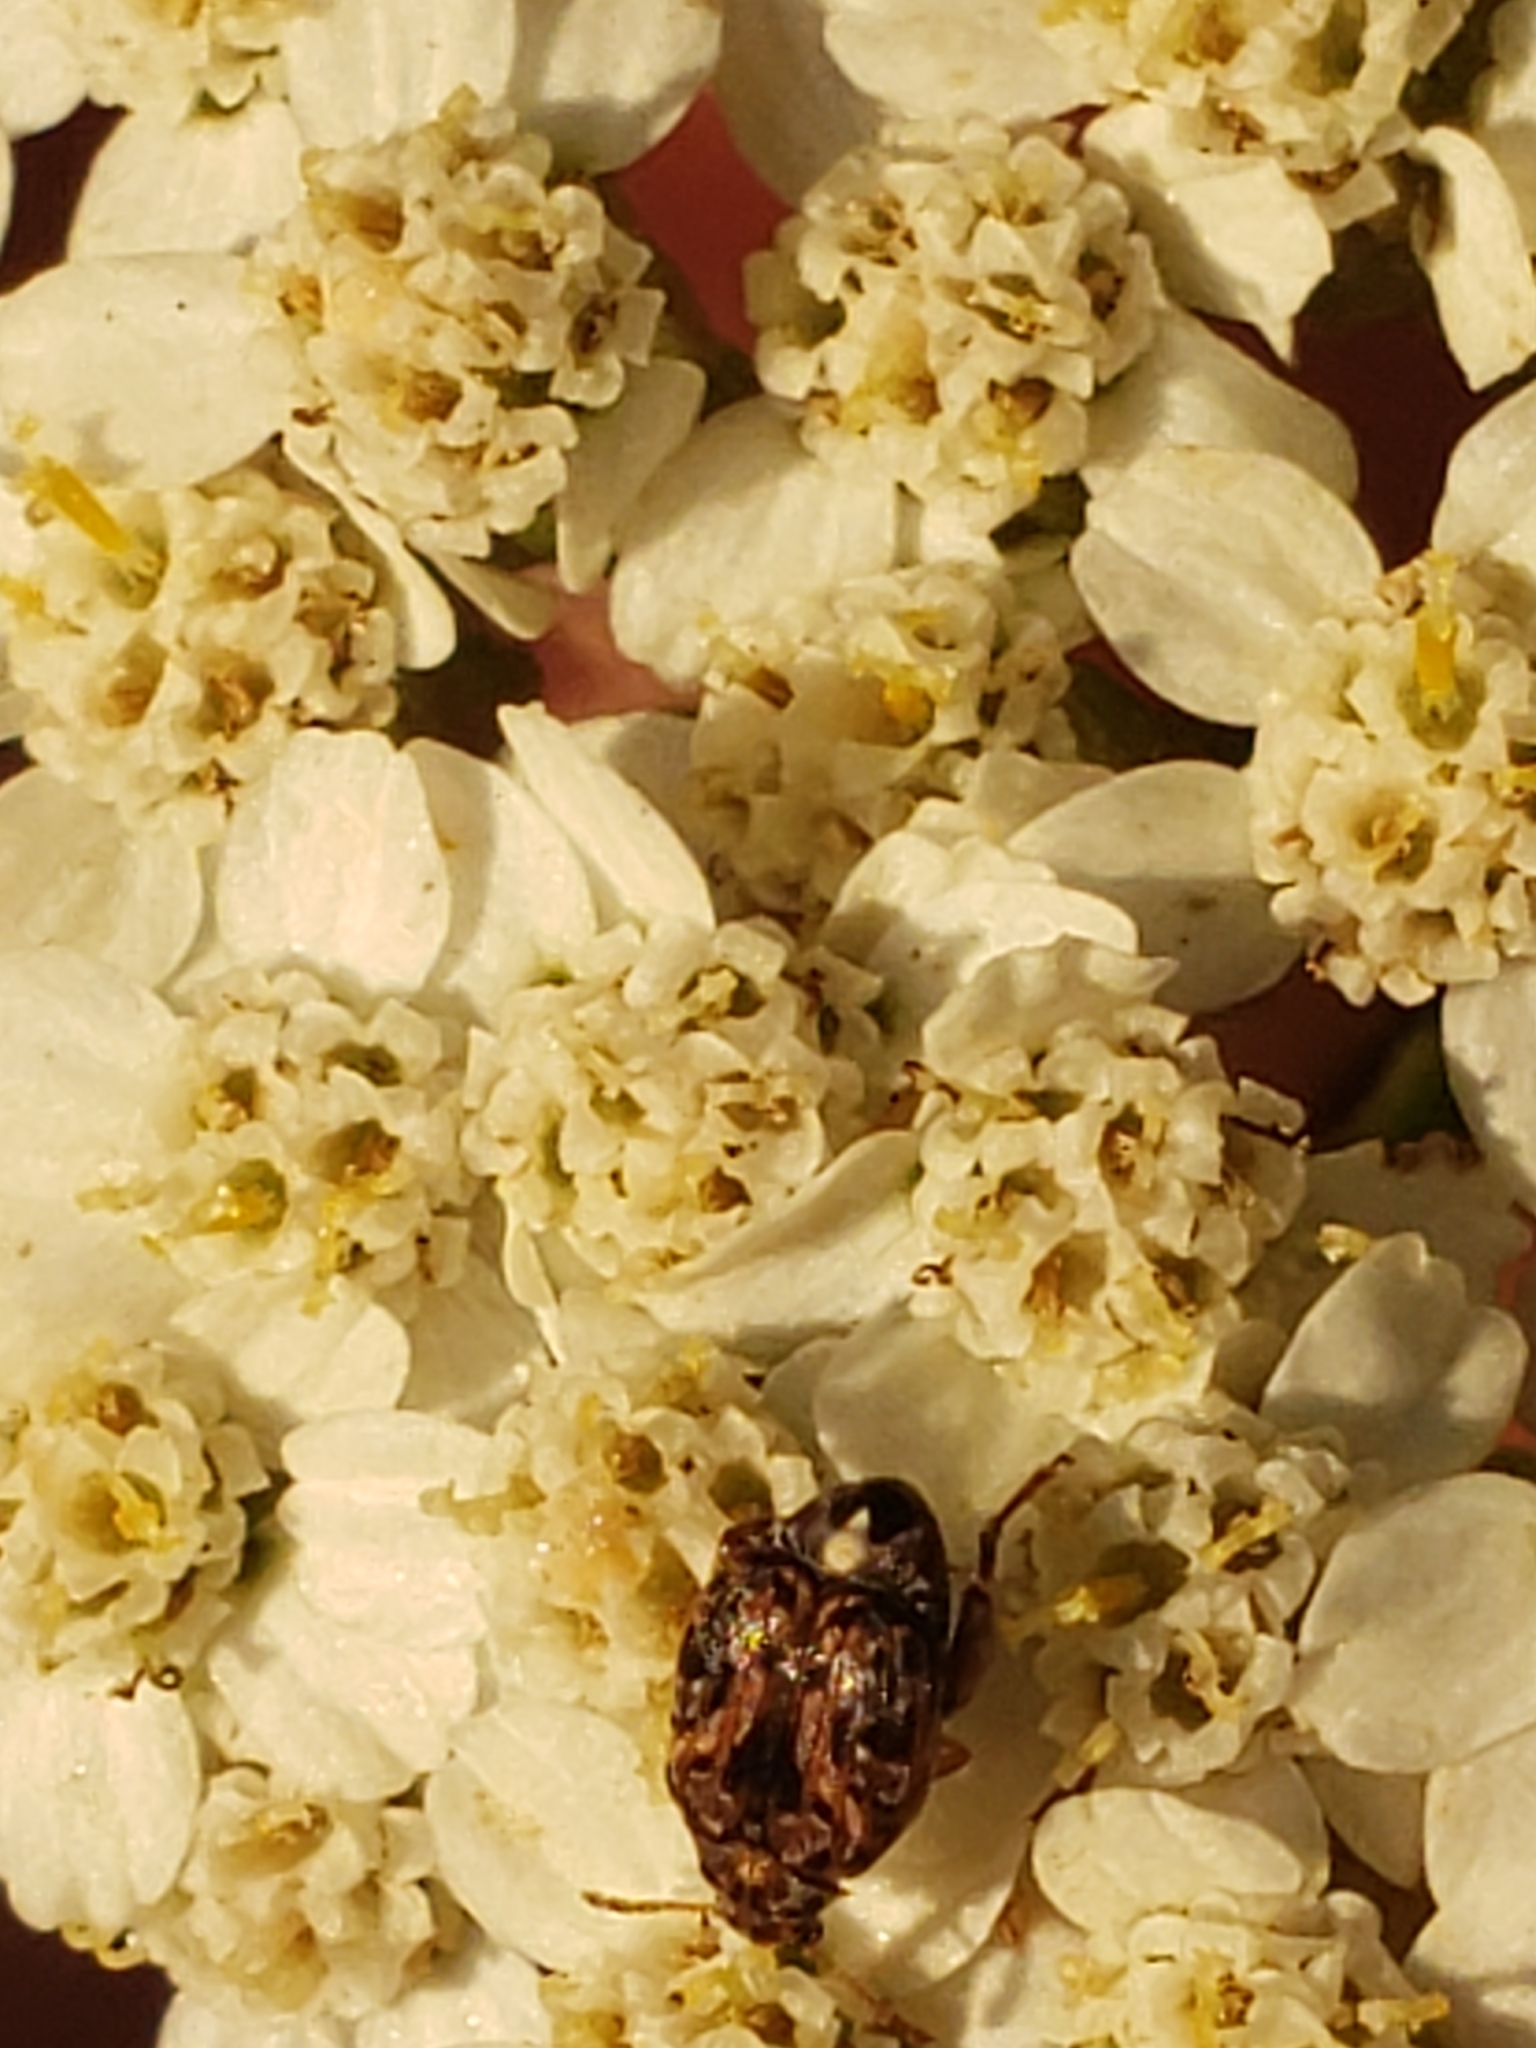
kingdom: Animalia
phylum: Arthropoda
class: Insecta
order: Coleoptera
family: Chrysomelidae
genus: Gibbobruchus
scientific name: Gibbobruchus mimus
